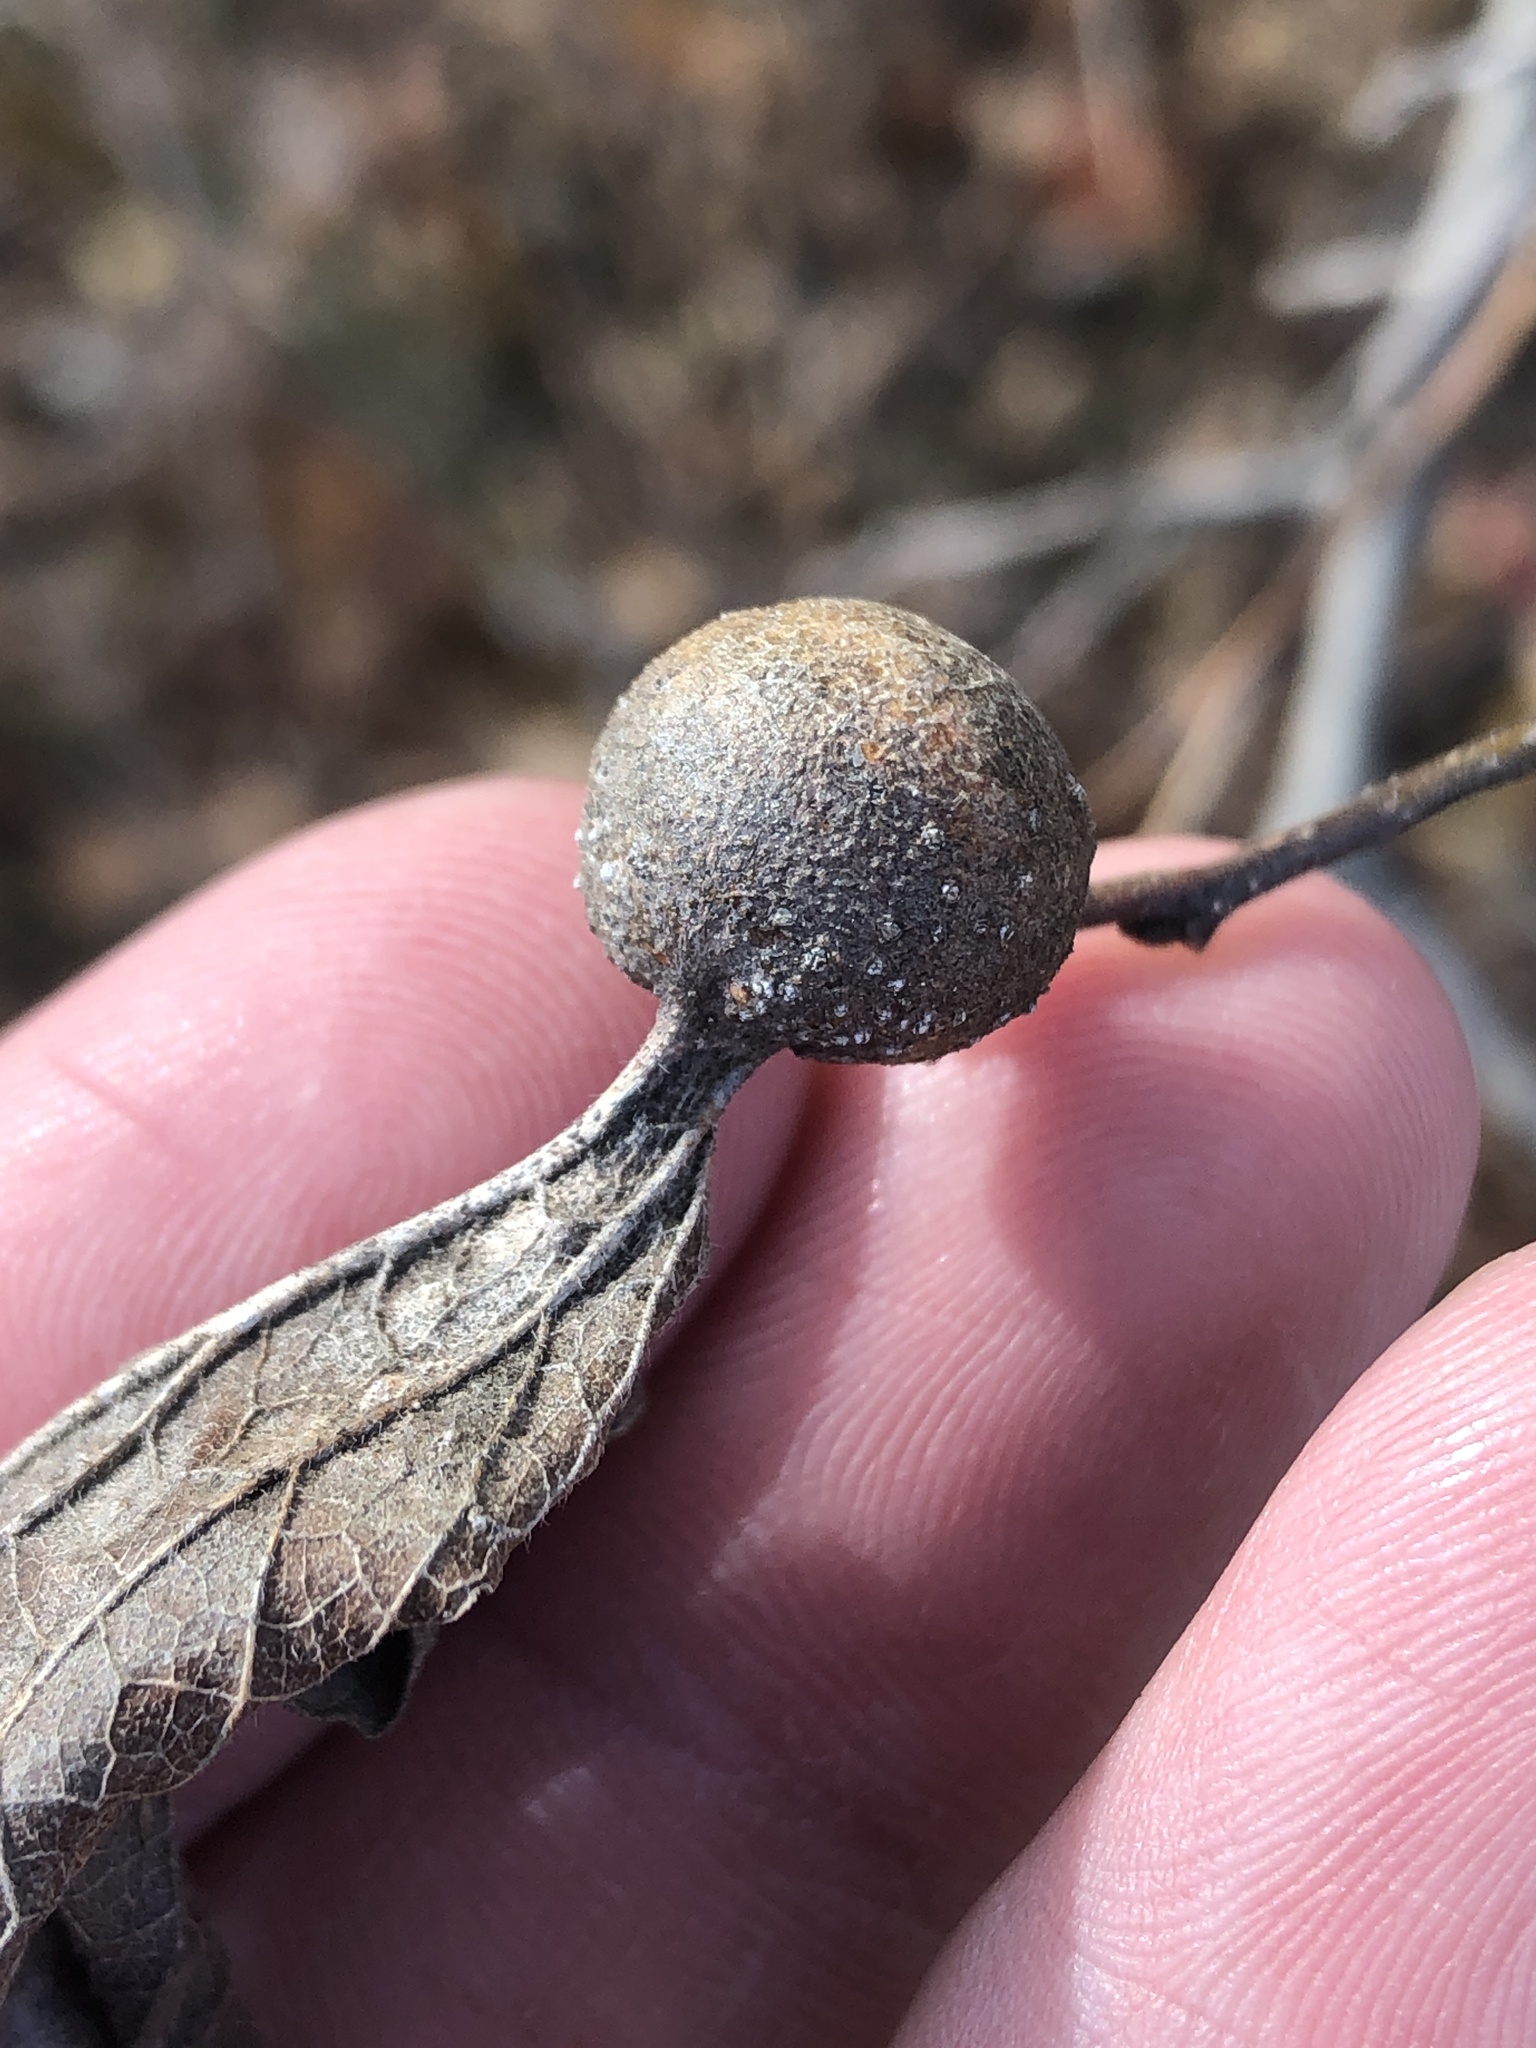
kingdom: Animalia
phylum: Arthropoda
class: Insecta
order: Hemiptera
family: Aphalaridae
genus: Pachypsylla
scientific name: Pachypsylla venusta
